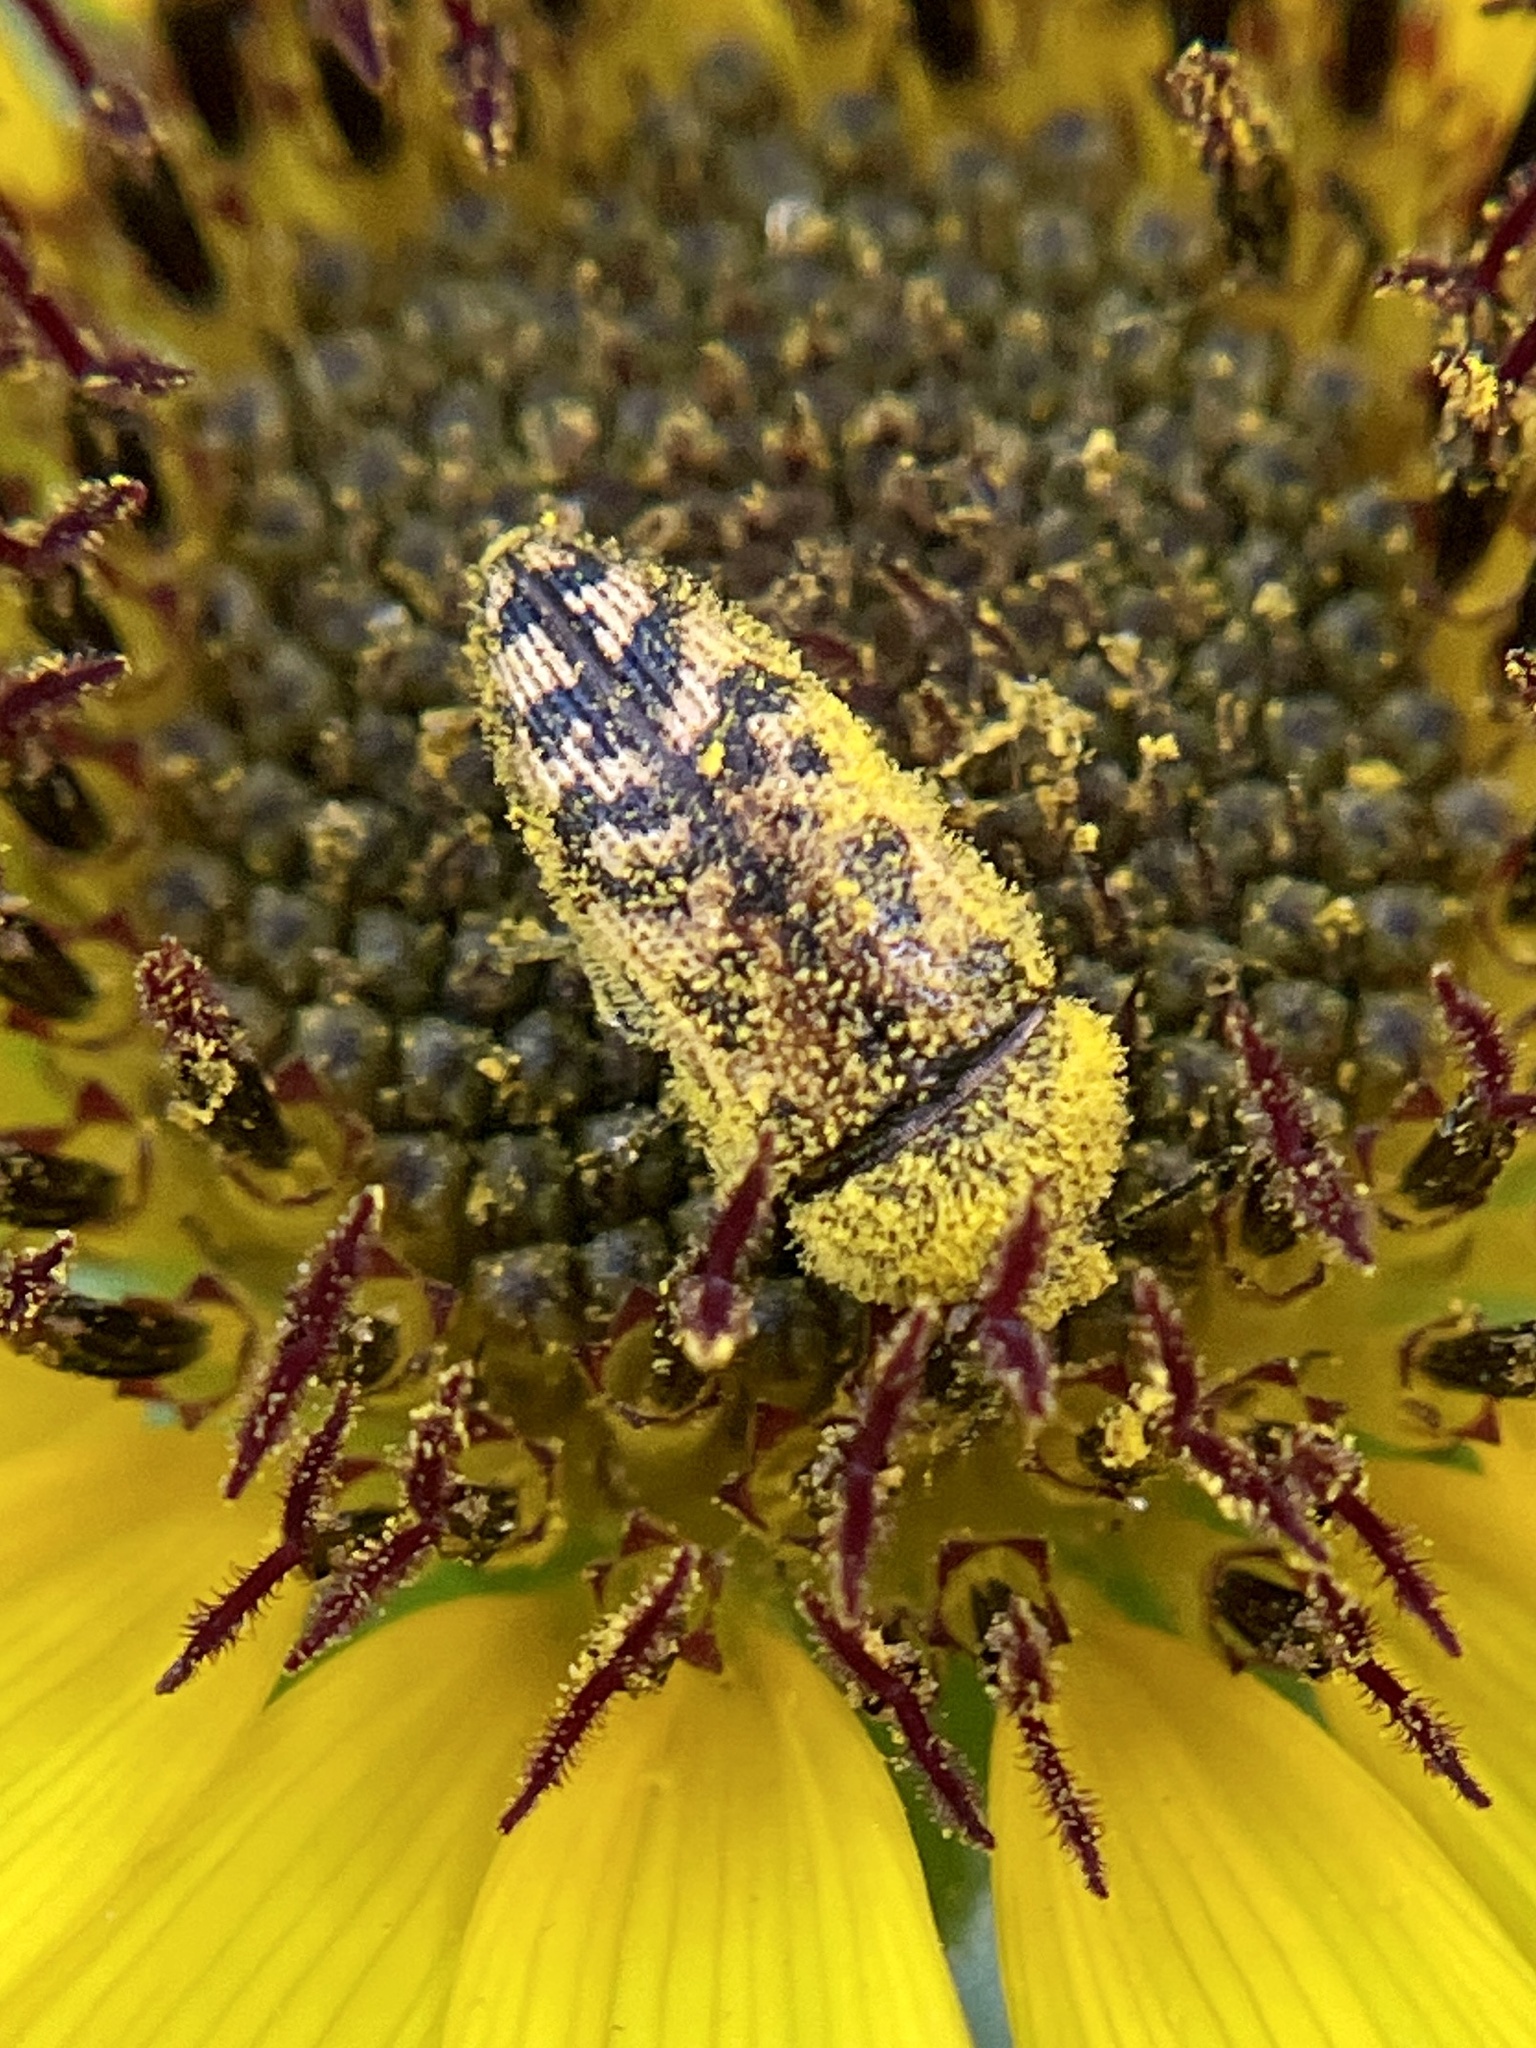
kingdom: Animalia
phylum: Arthropoda
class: Insecta
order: Coleoptera
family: Buprestidae
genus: Acmaeodera
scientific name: Acmaeodera mixta
